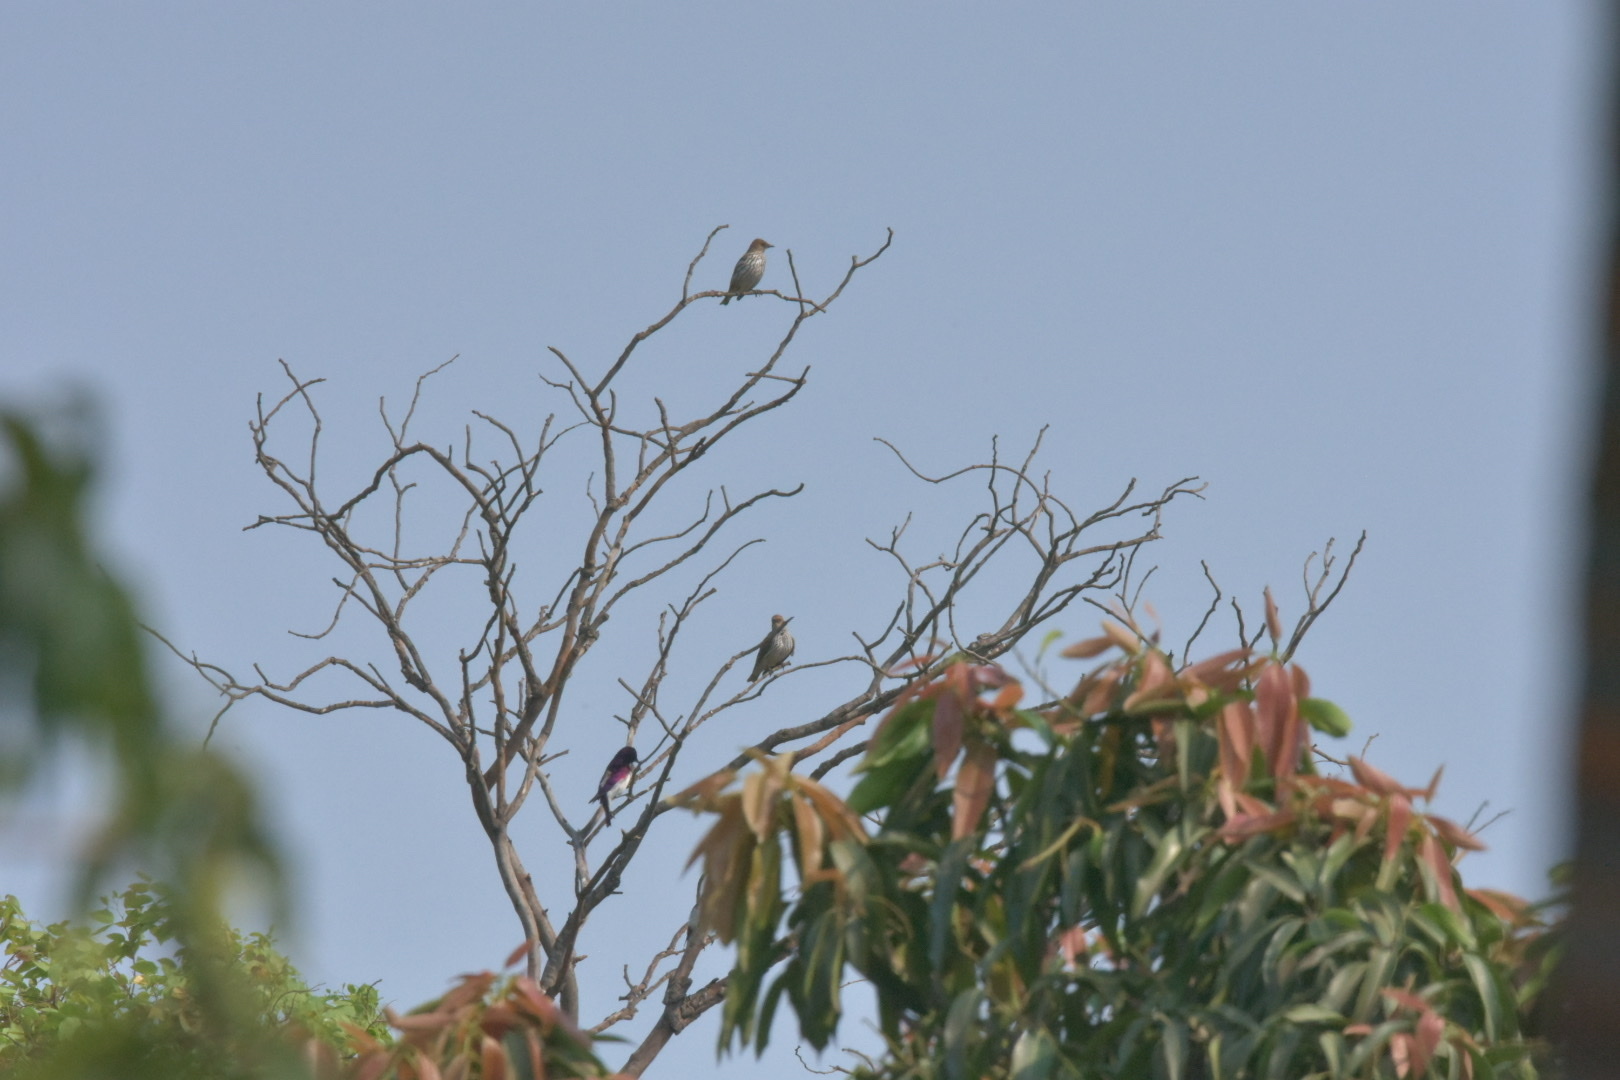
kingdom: Animalia
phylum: Chordata
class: Aves
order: Passeriformes
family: Sturnidae
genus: Cinnyricinclus
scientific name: Cinnyricinclus leucogaster
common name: Violet-backed starling
